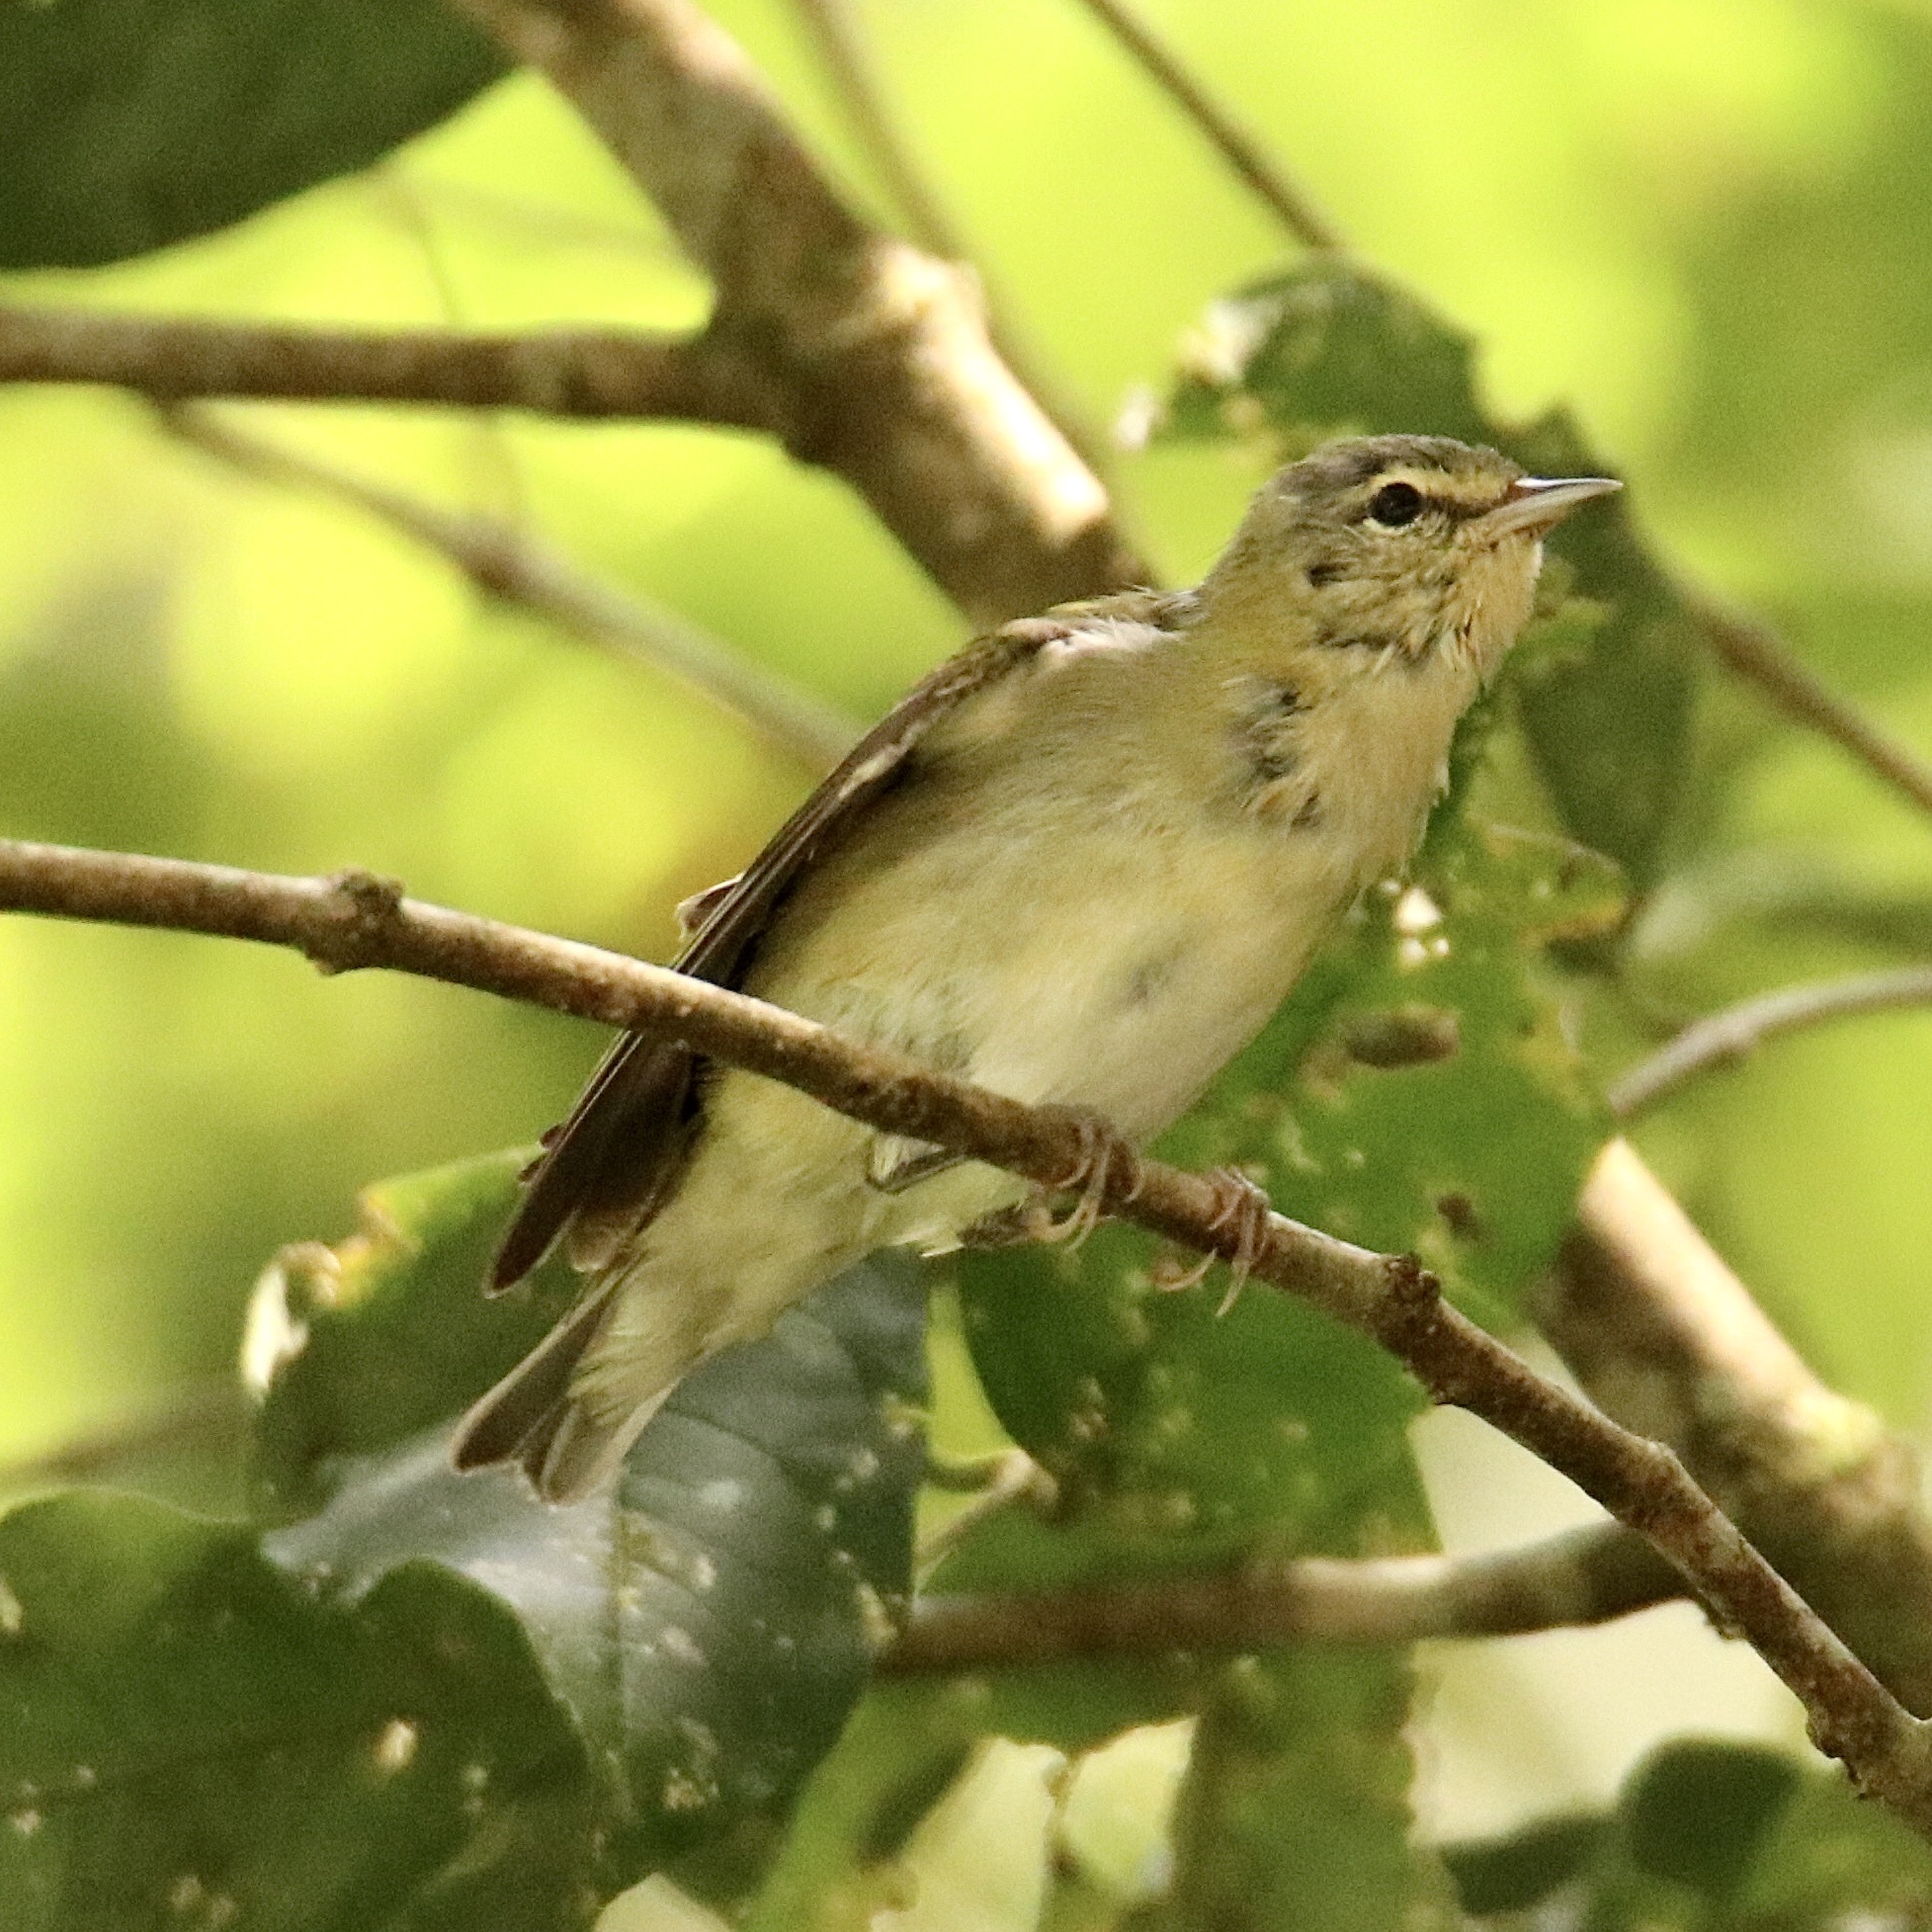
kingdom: Animalia
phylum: Chordata
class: Aves
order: Passeriformes
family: Parulidae
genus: Leiothlypis
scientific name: Leiothlypis peregrina
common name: Tennessee warbler
